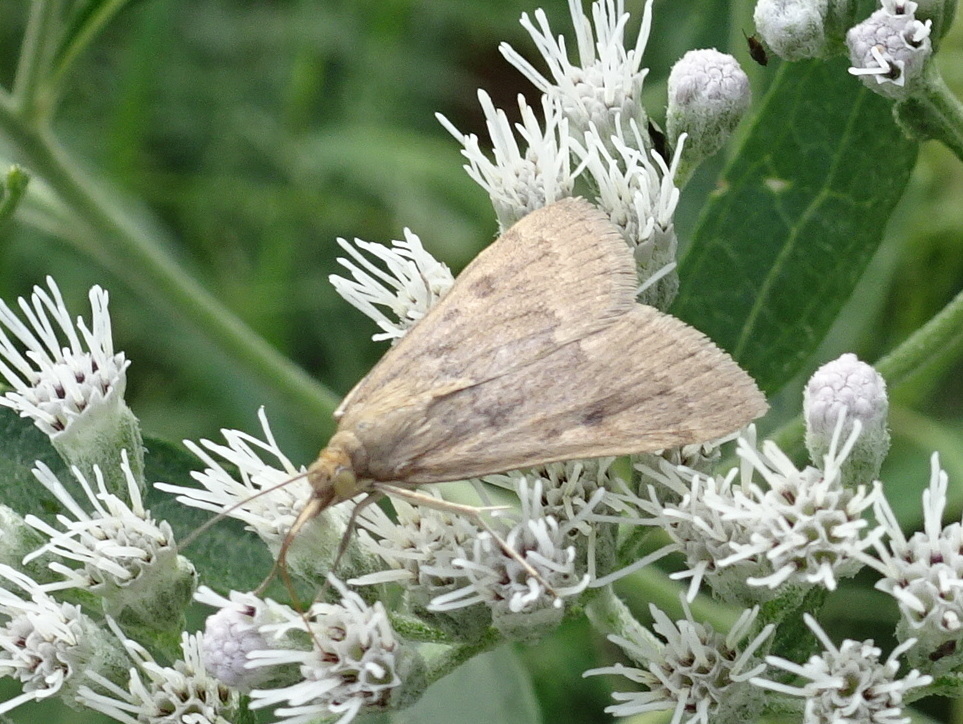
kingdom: Animalia
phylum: Arthropoda
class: Insecta
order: Lepidoptera
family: Crambidae
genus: Achyra
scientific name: Achyra rantalis
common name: Garden webworm
